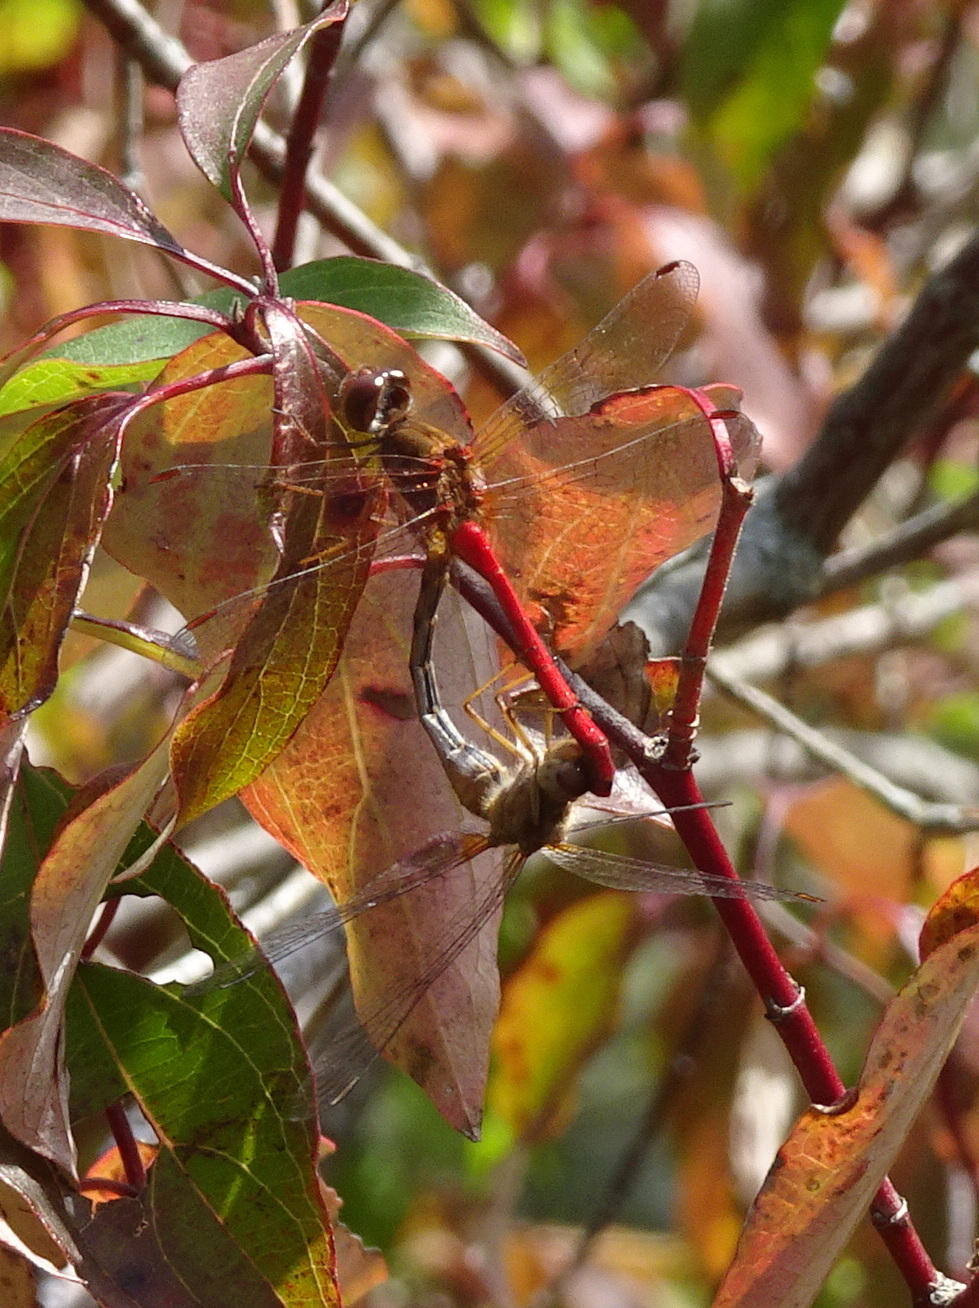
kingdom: Animalia
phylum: Arthropoda
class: Insecta
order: Odonata
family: Libellulidae
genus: Sympetrum
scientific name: Sympetrum vicinum
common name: Autumn meadowhawk
